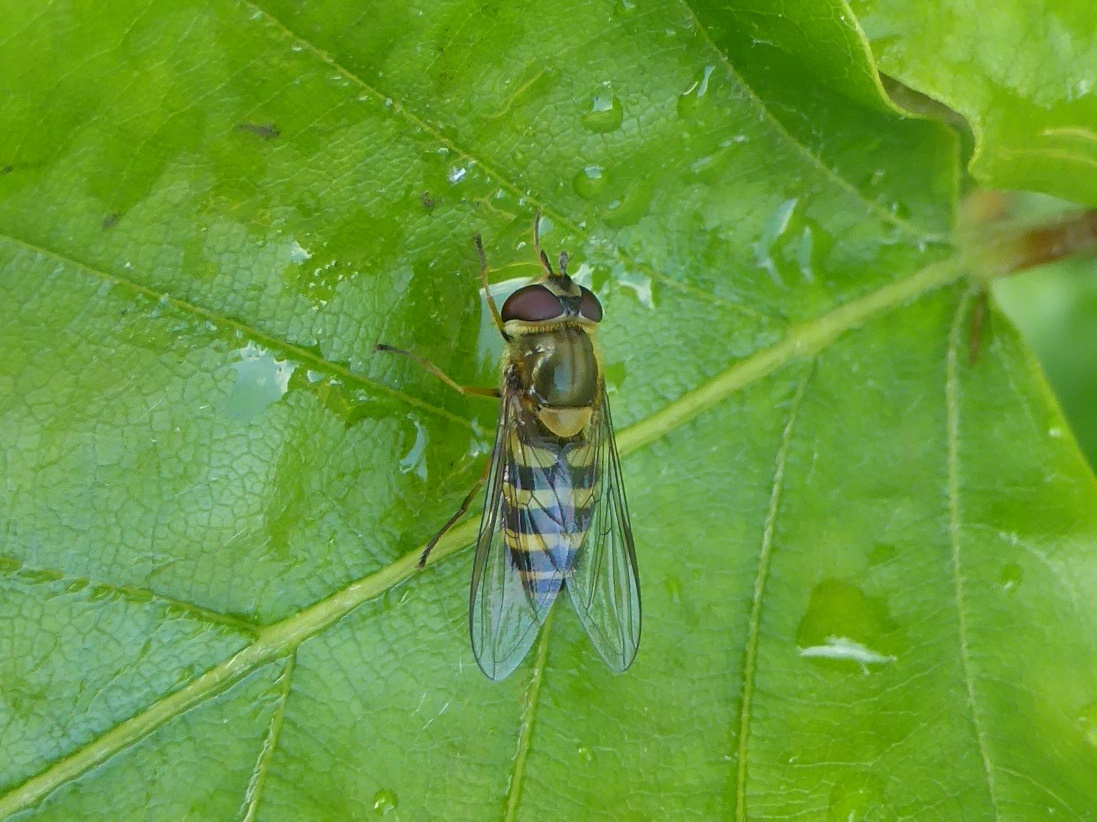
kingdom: Animalia
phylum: Arthropoda
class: Insecta
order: Diptera
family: Syrphidae
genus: Syrphus
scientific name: Syrphus
